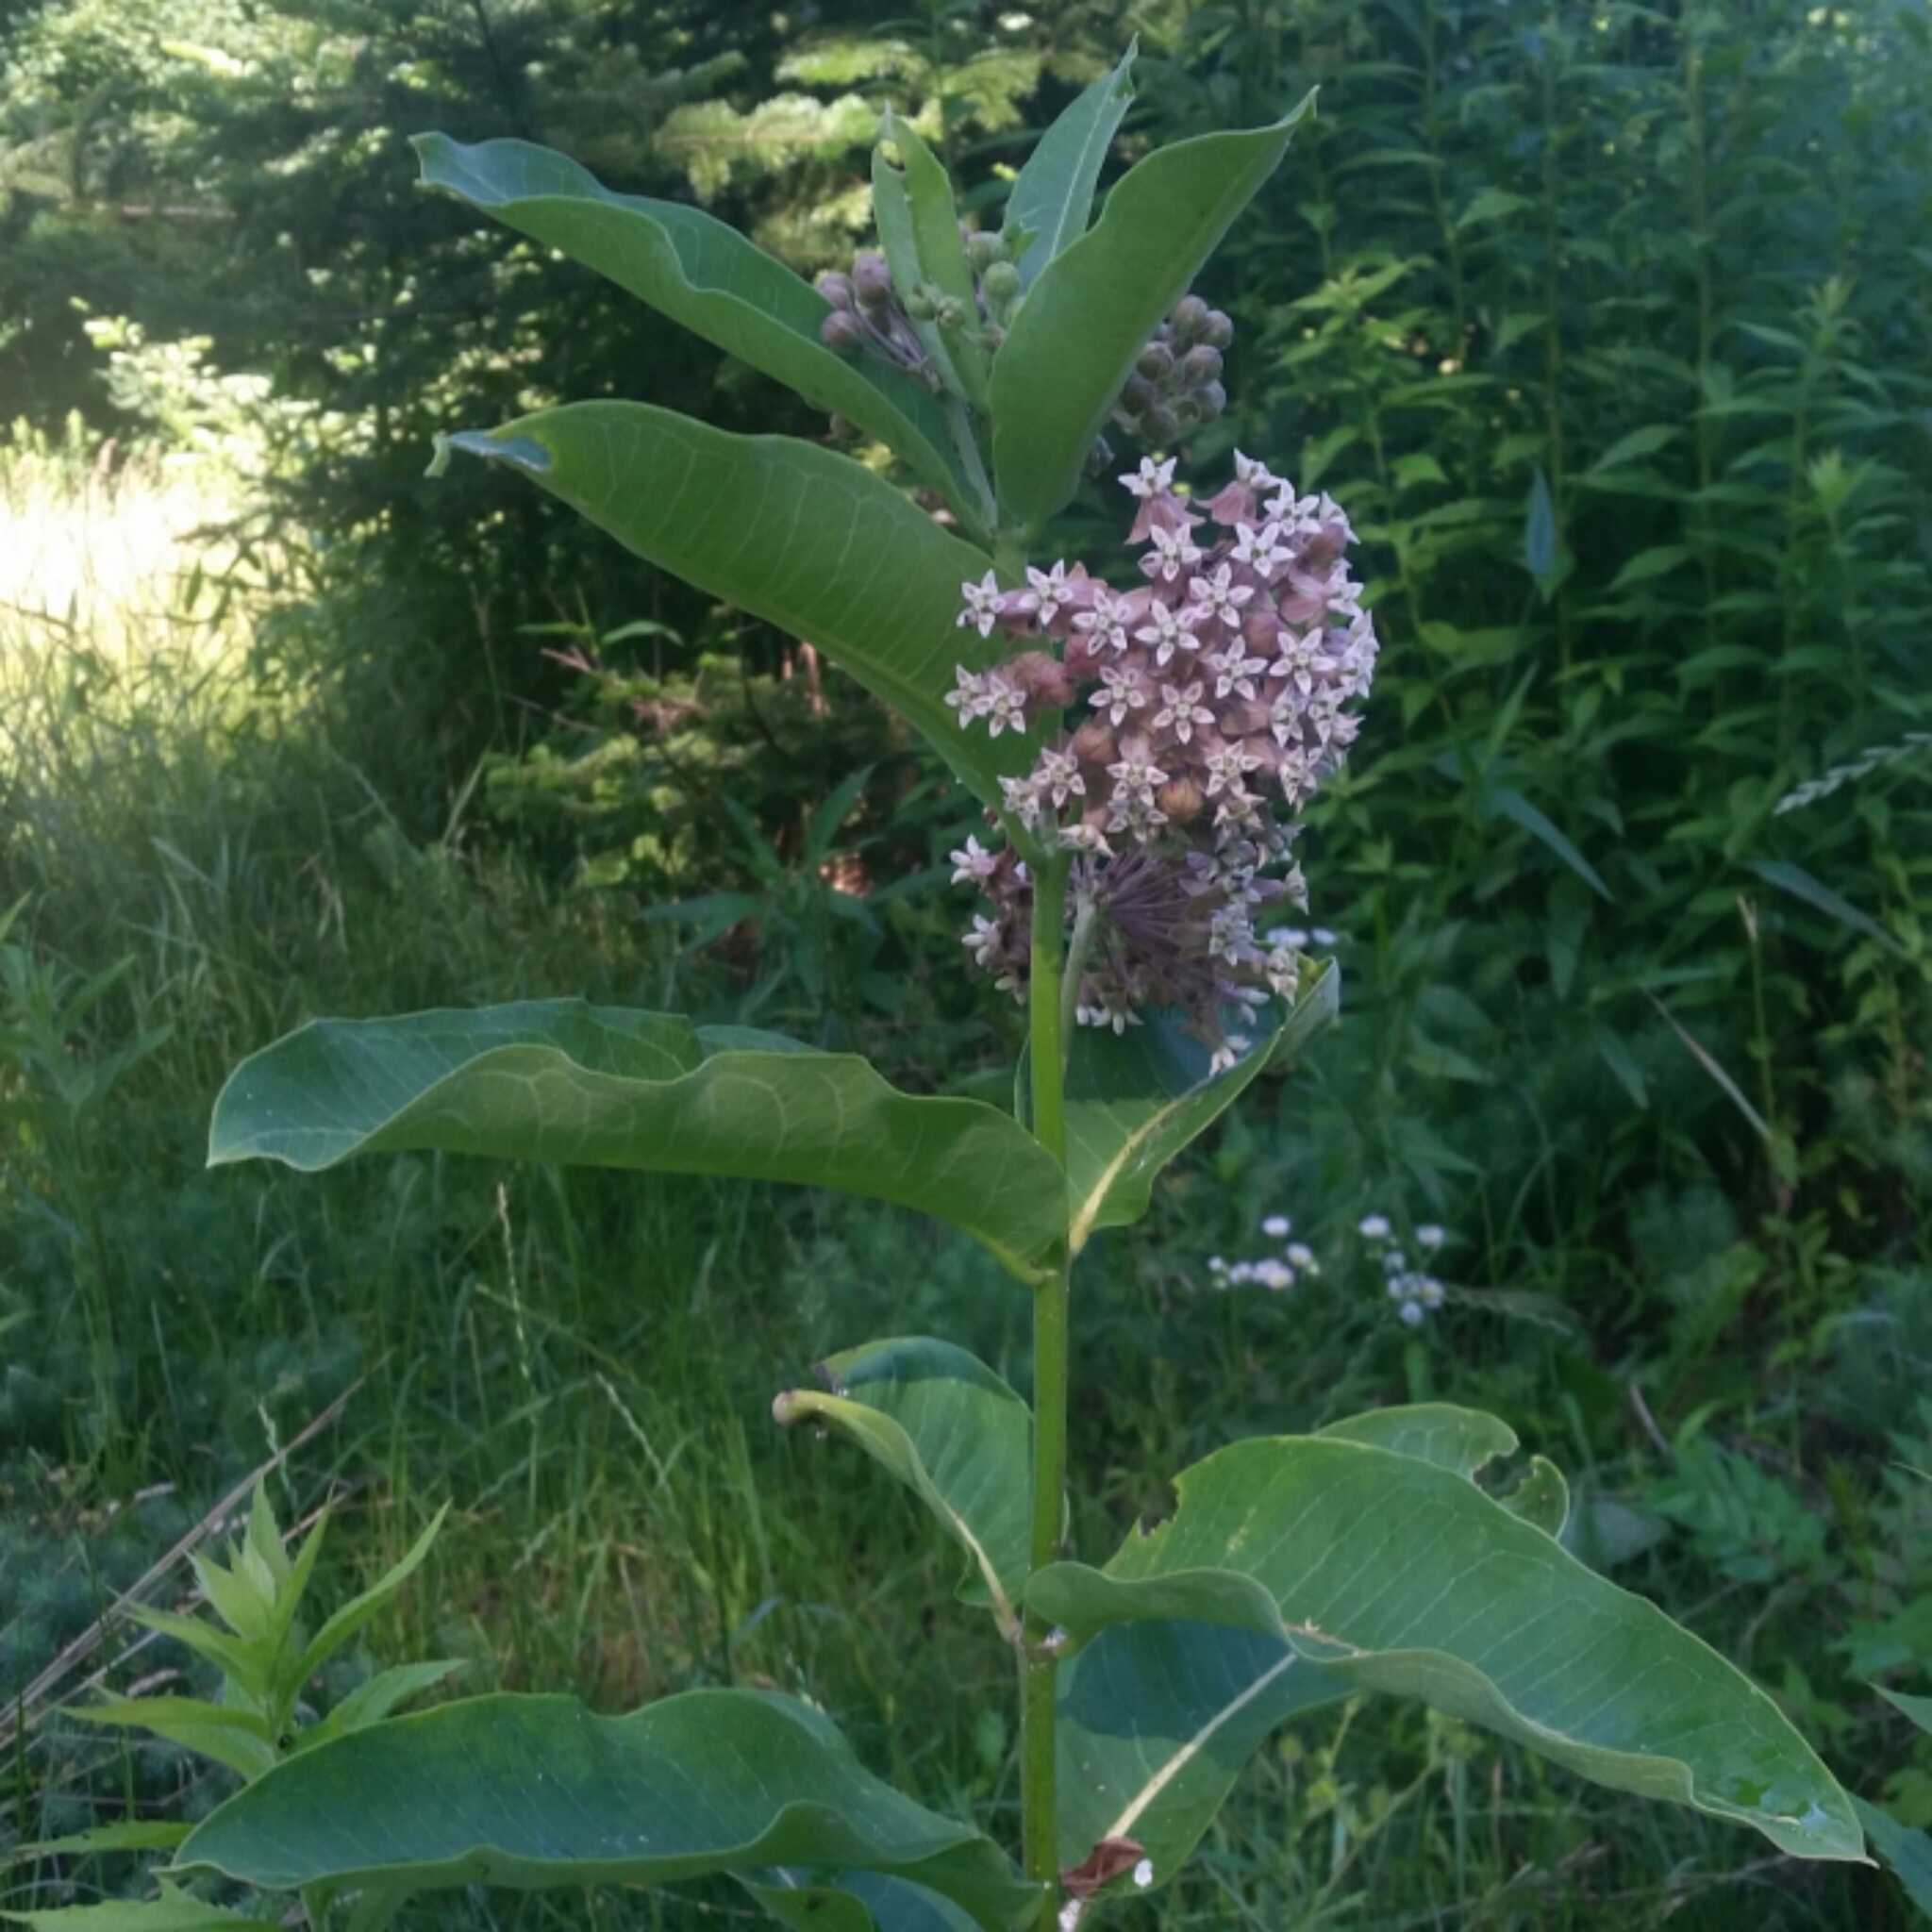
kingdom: Plantae
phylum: Tracheophyta
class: Magnoliopsida
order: Gentianales
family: Apocynaceae
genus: Asclepias
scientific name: Asclepias syriaca
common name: Common milkweed
